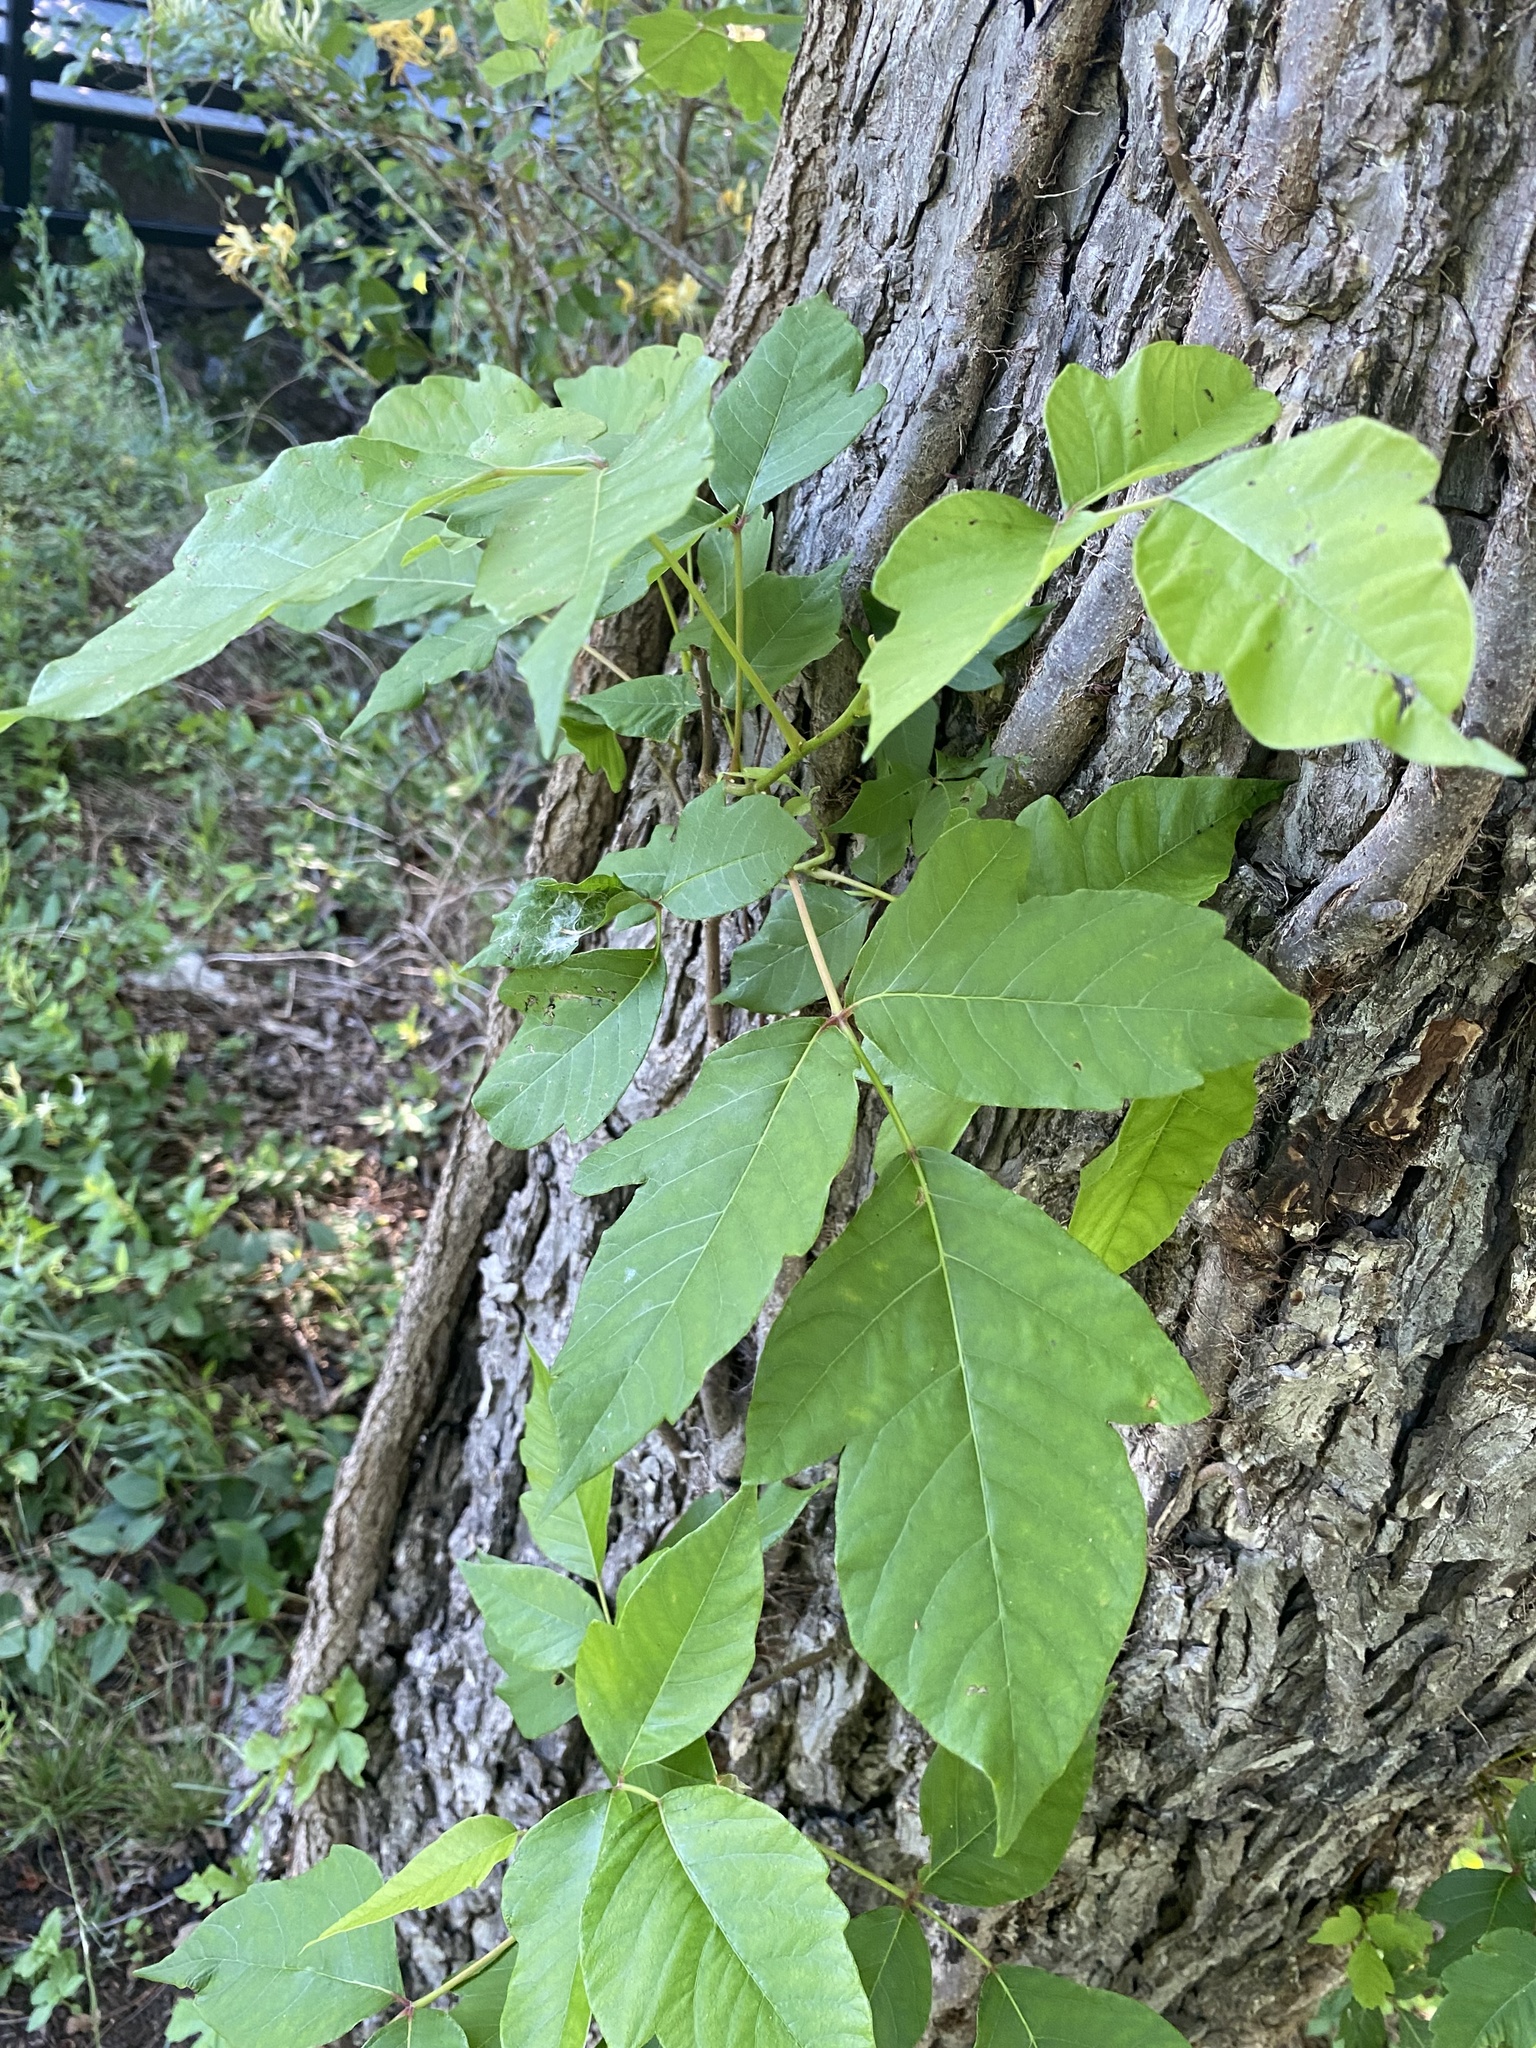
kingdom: Plantae
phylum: Tracheophyta
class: Magnoliopsida
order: Sapindales
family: Anacardiaceae
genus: Toxicodendron
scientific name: Toxicodendron radicans
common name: Poison ivy
